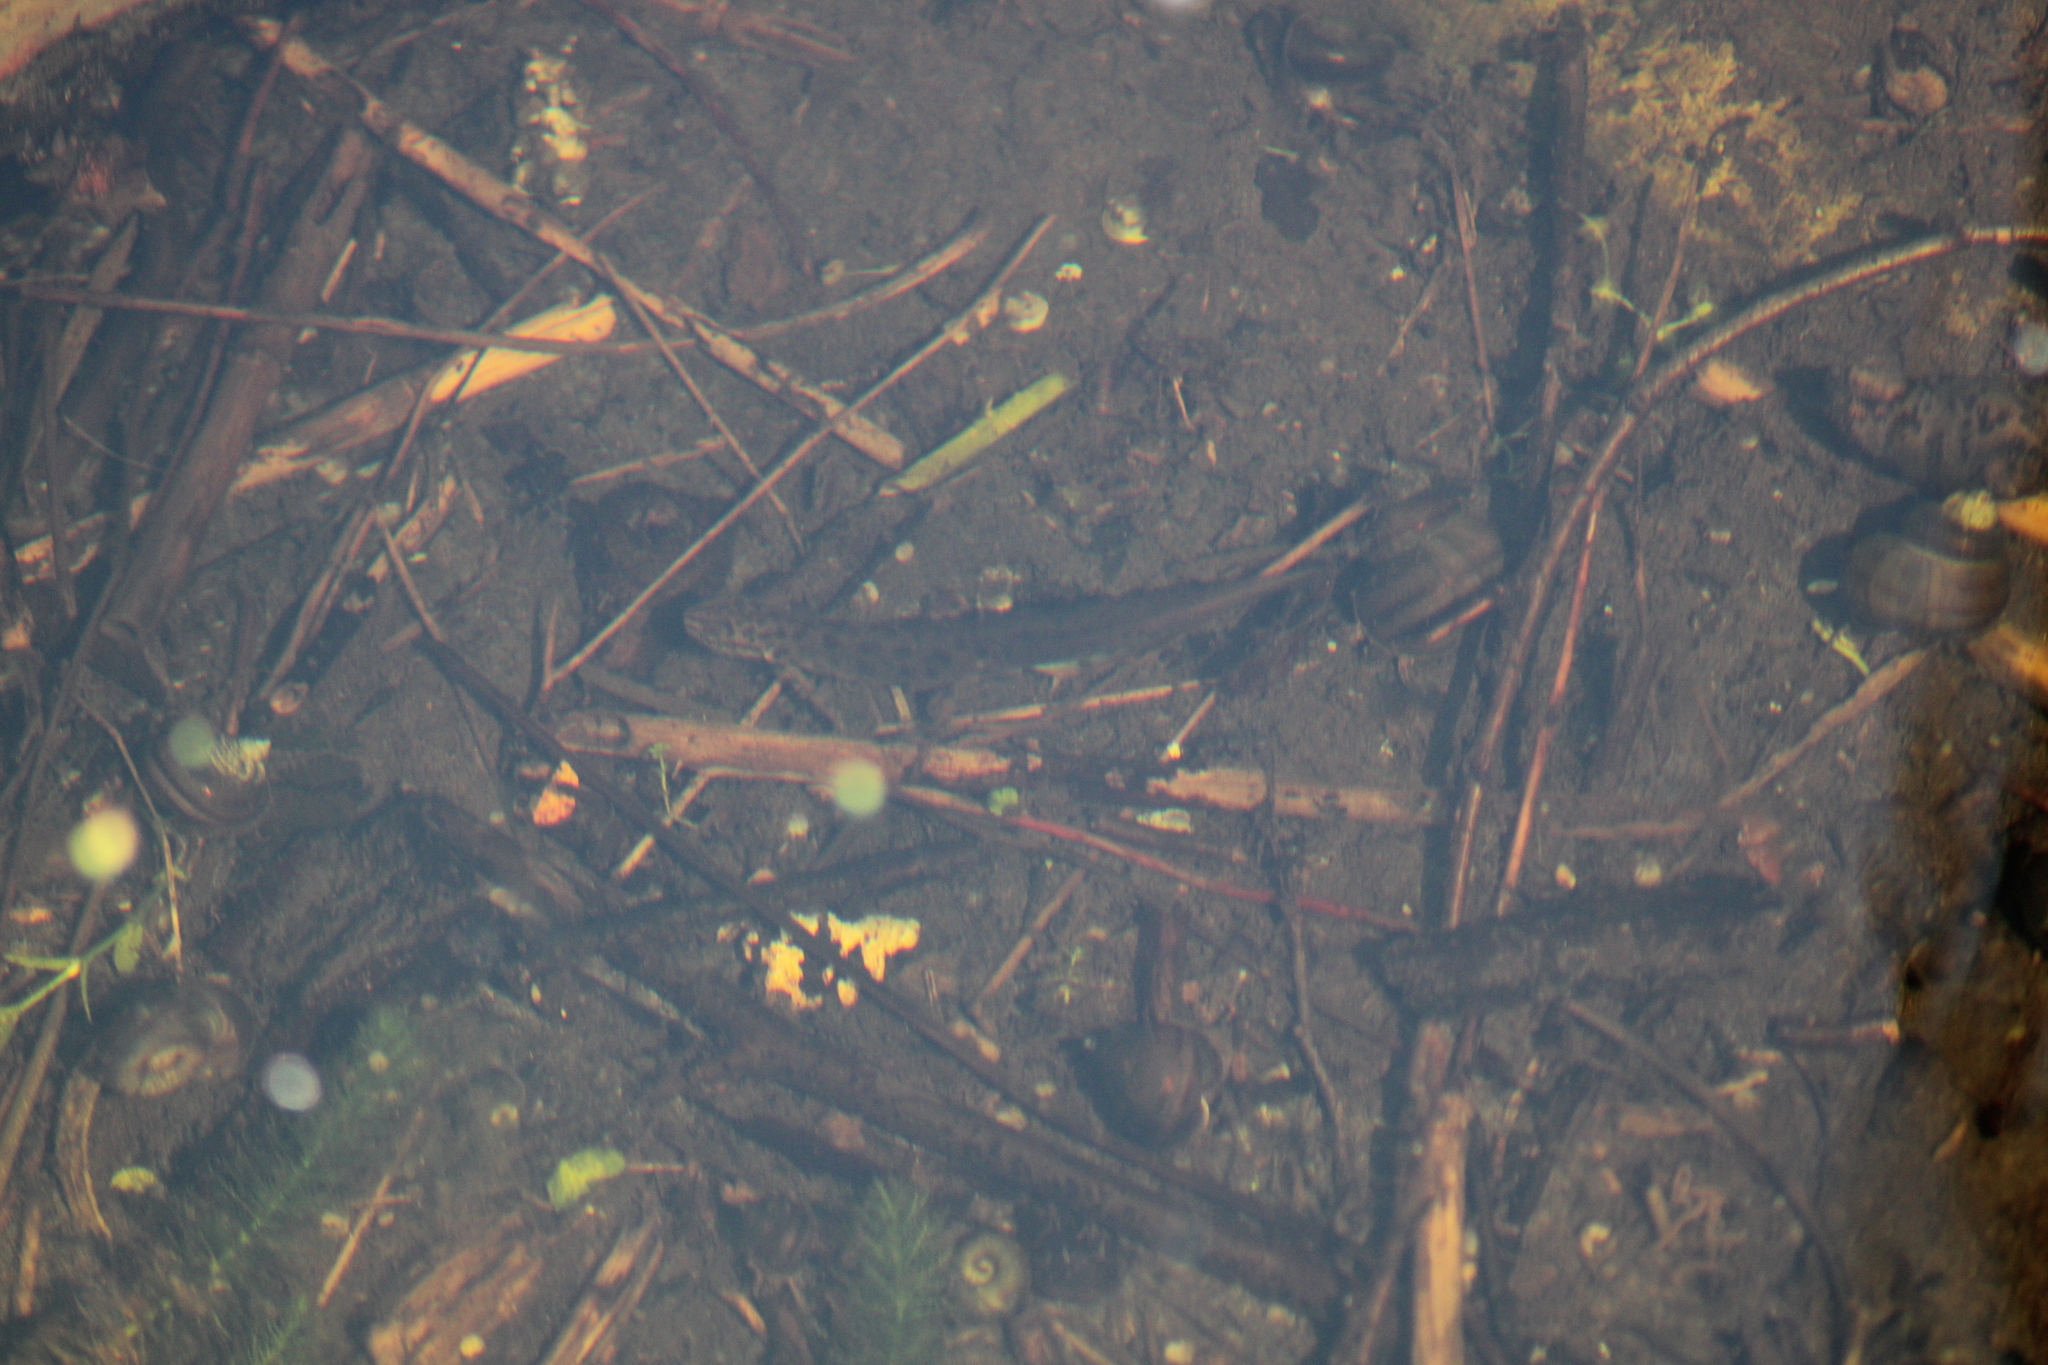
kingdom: Animalia
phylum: Chordata
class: Amphibia
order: Caudata
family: Salamandridae
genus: Lissotriton
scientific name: Lissotriton vulgaris
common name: Smooth newt
